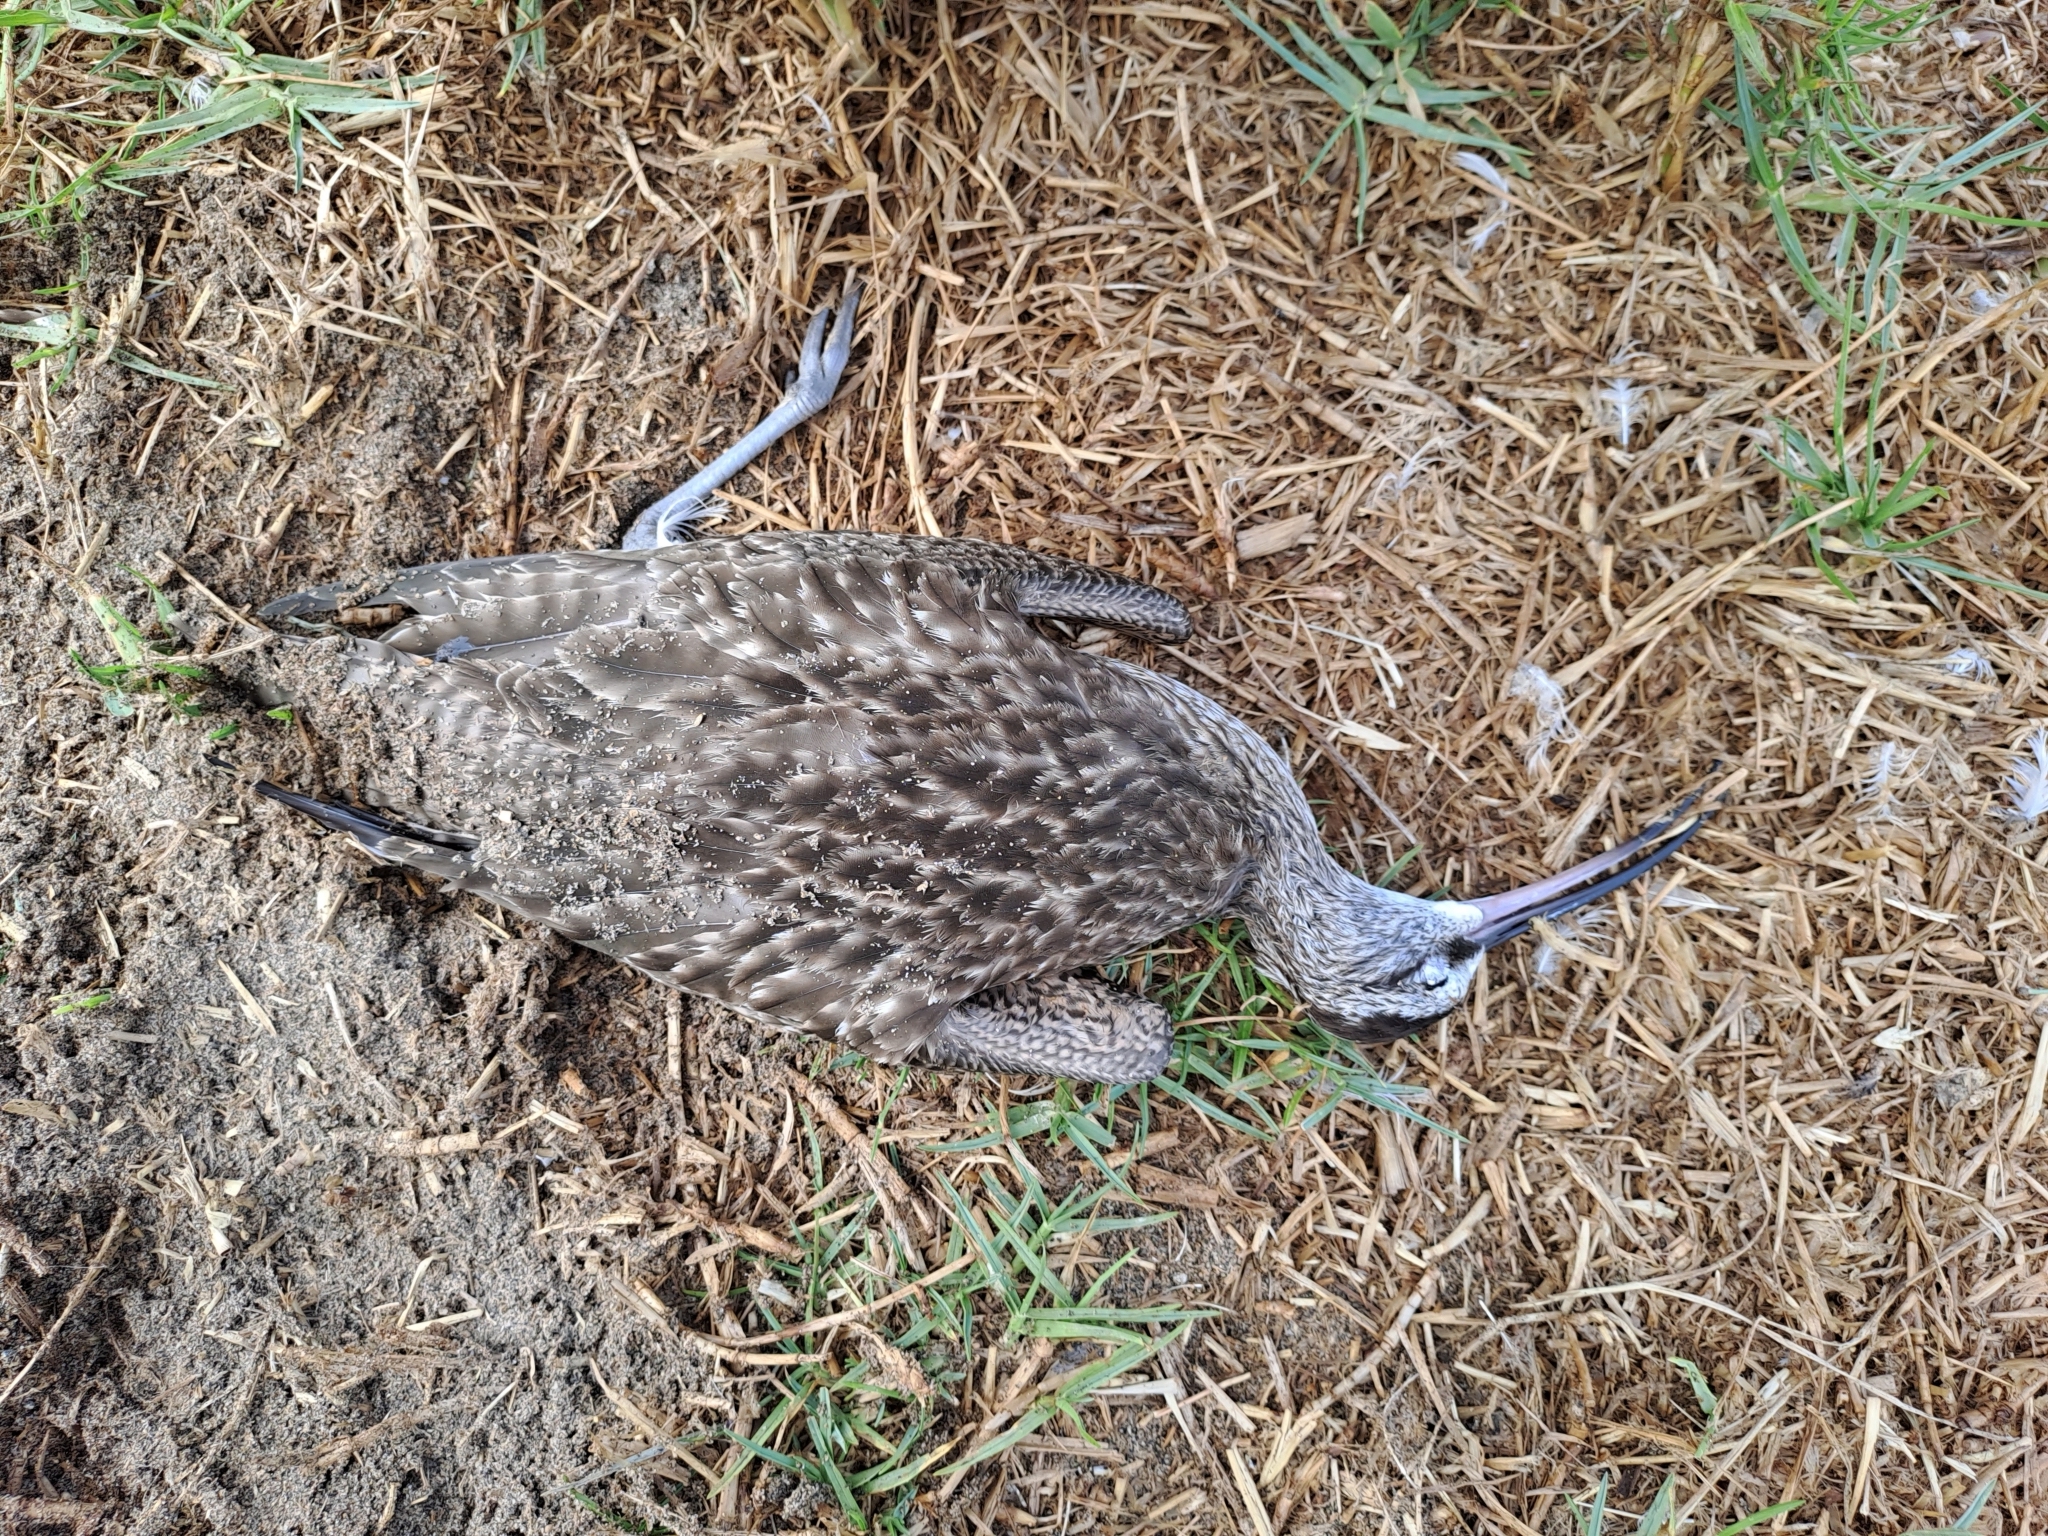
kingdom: Animalia
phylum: Chordata
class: Aves
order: Charadriiformes
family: Scolopacidae
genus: Numenius
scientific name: Numenius phaeopus
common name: Whimbrel
